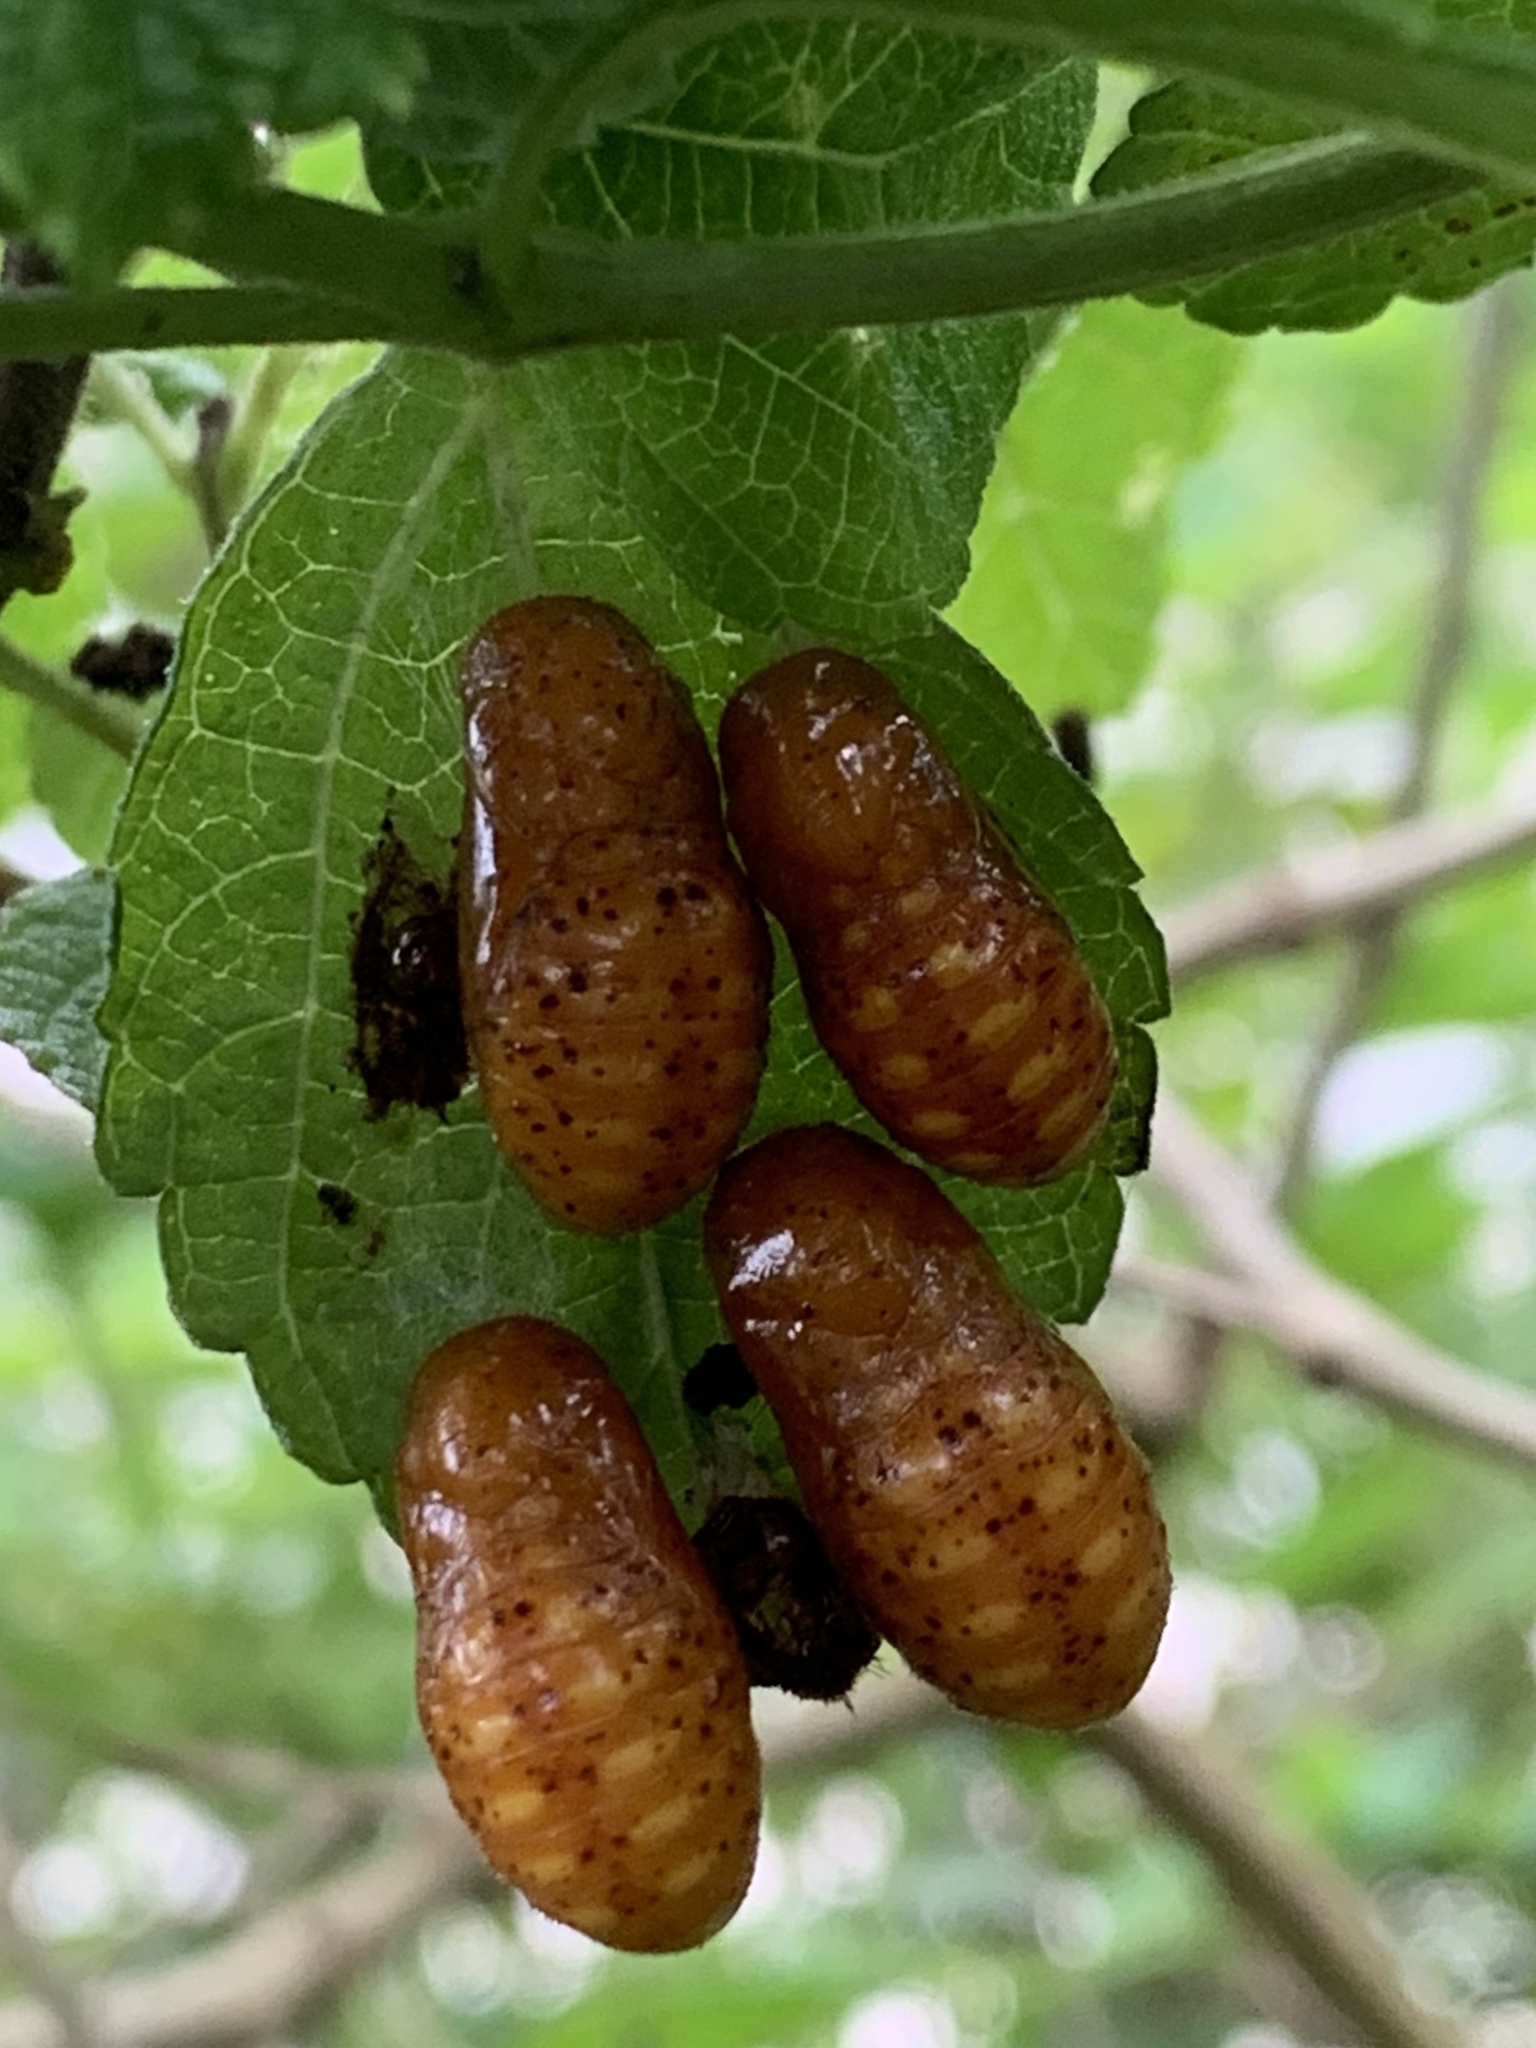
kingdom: Animalia
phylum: Arthropoda
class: Insecta
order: Lepidoptera
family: Lycaenidae
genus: Eumaeus
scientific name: Eumaeus atala
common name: Atala
